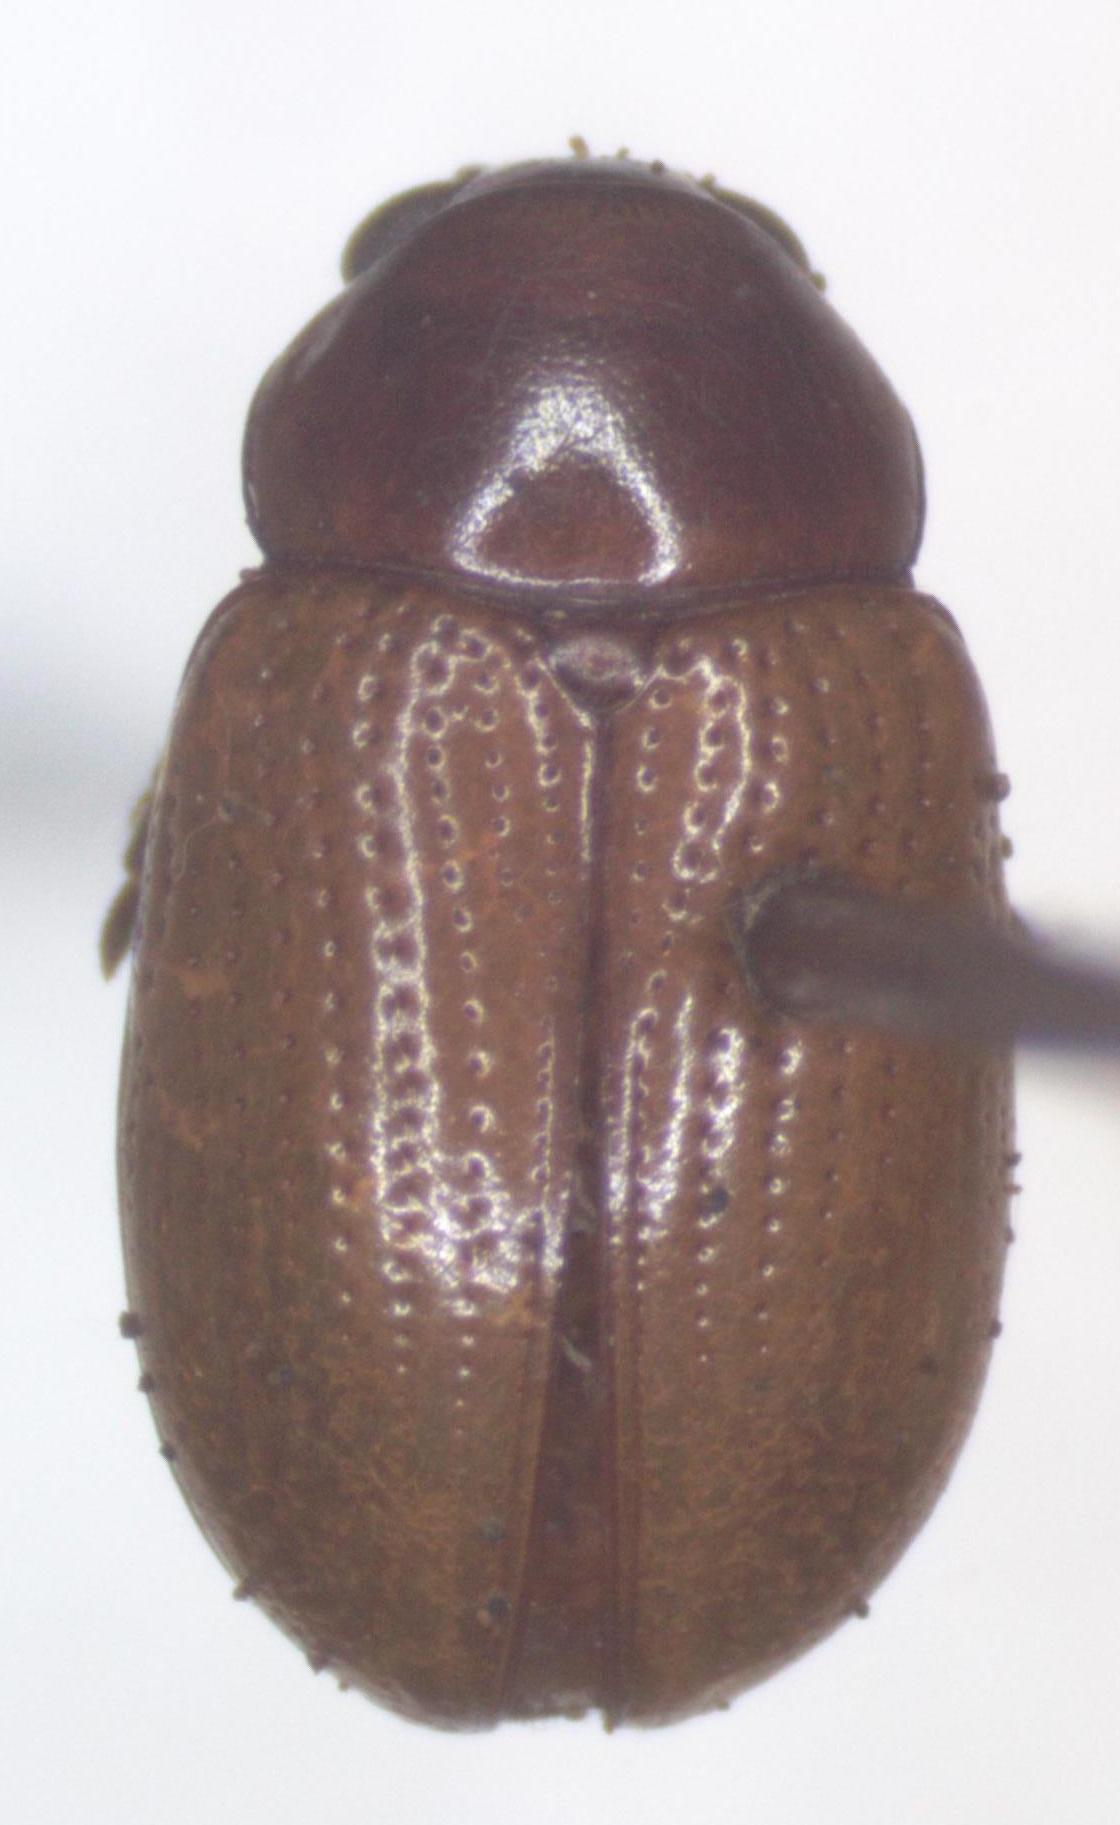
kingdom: Animalia
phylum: Arthropoda
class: Insecta
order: Coleoptera
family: Chrysomelidae
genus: Metachroma
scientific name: Metachroma
